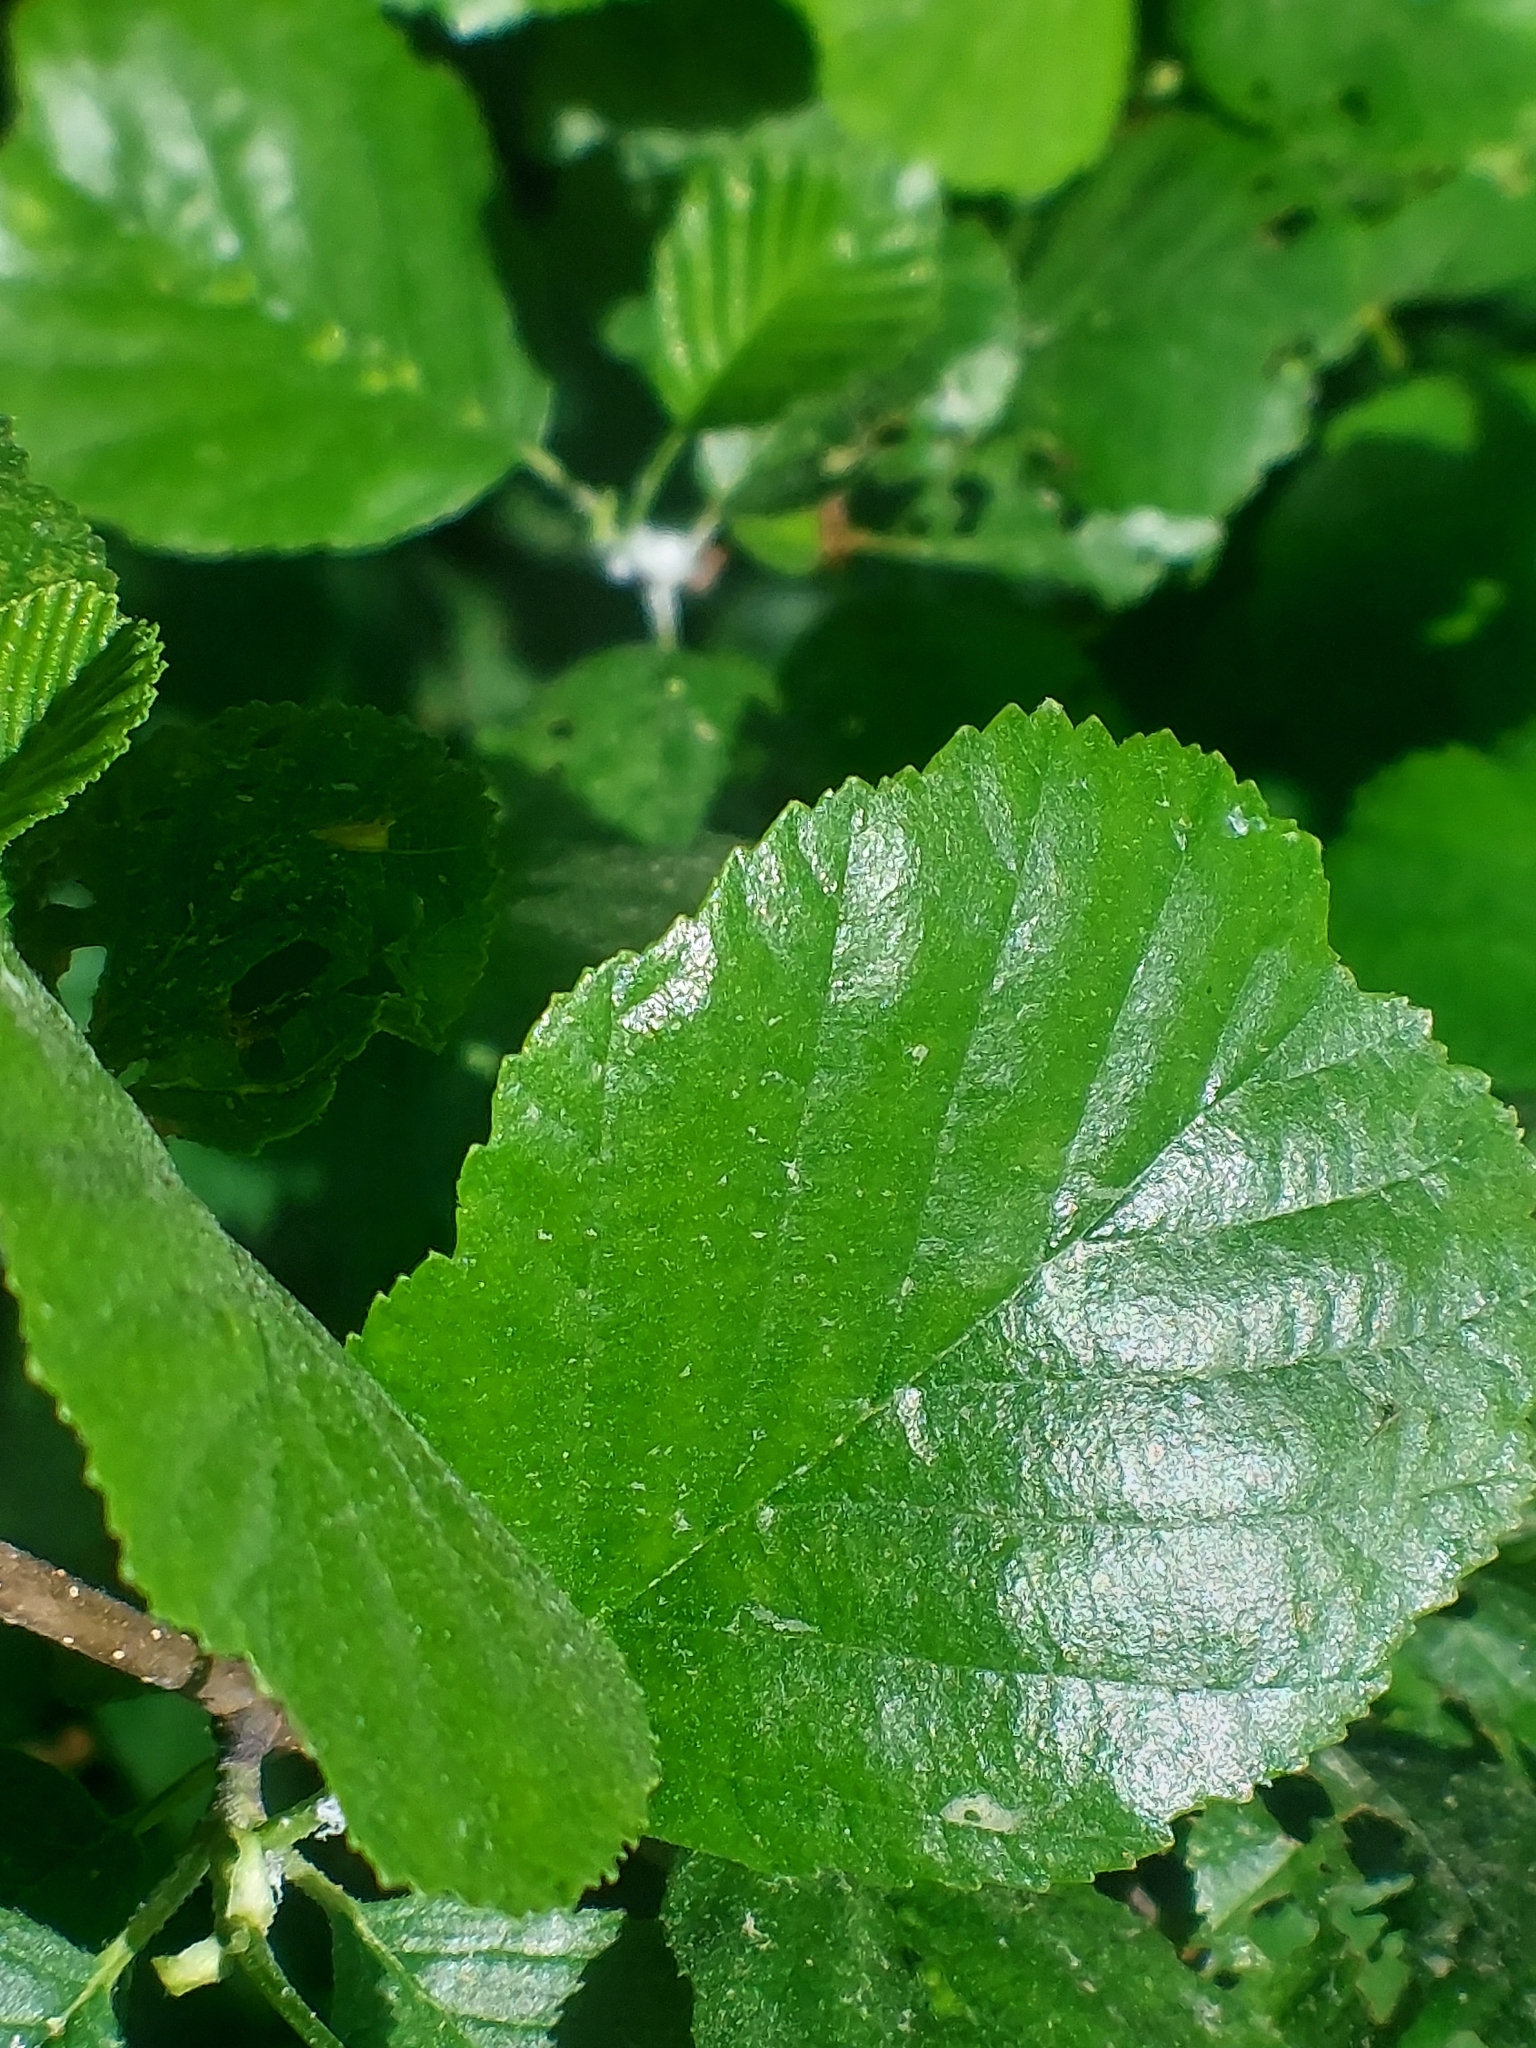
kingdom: Plantae
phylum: Tracheophyta
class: Magnoliopsida
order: Fagales
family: Betulaceae
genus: Alnus
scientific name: Alnus glutinosa
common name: Black alder
